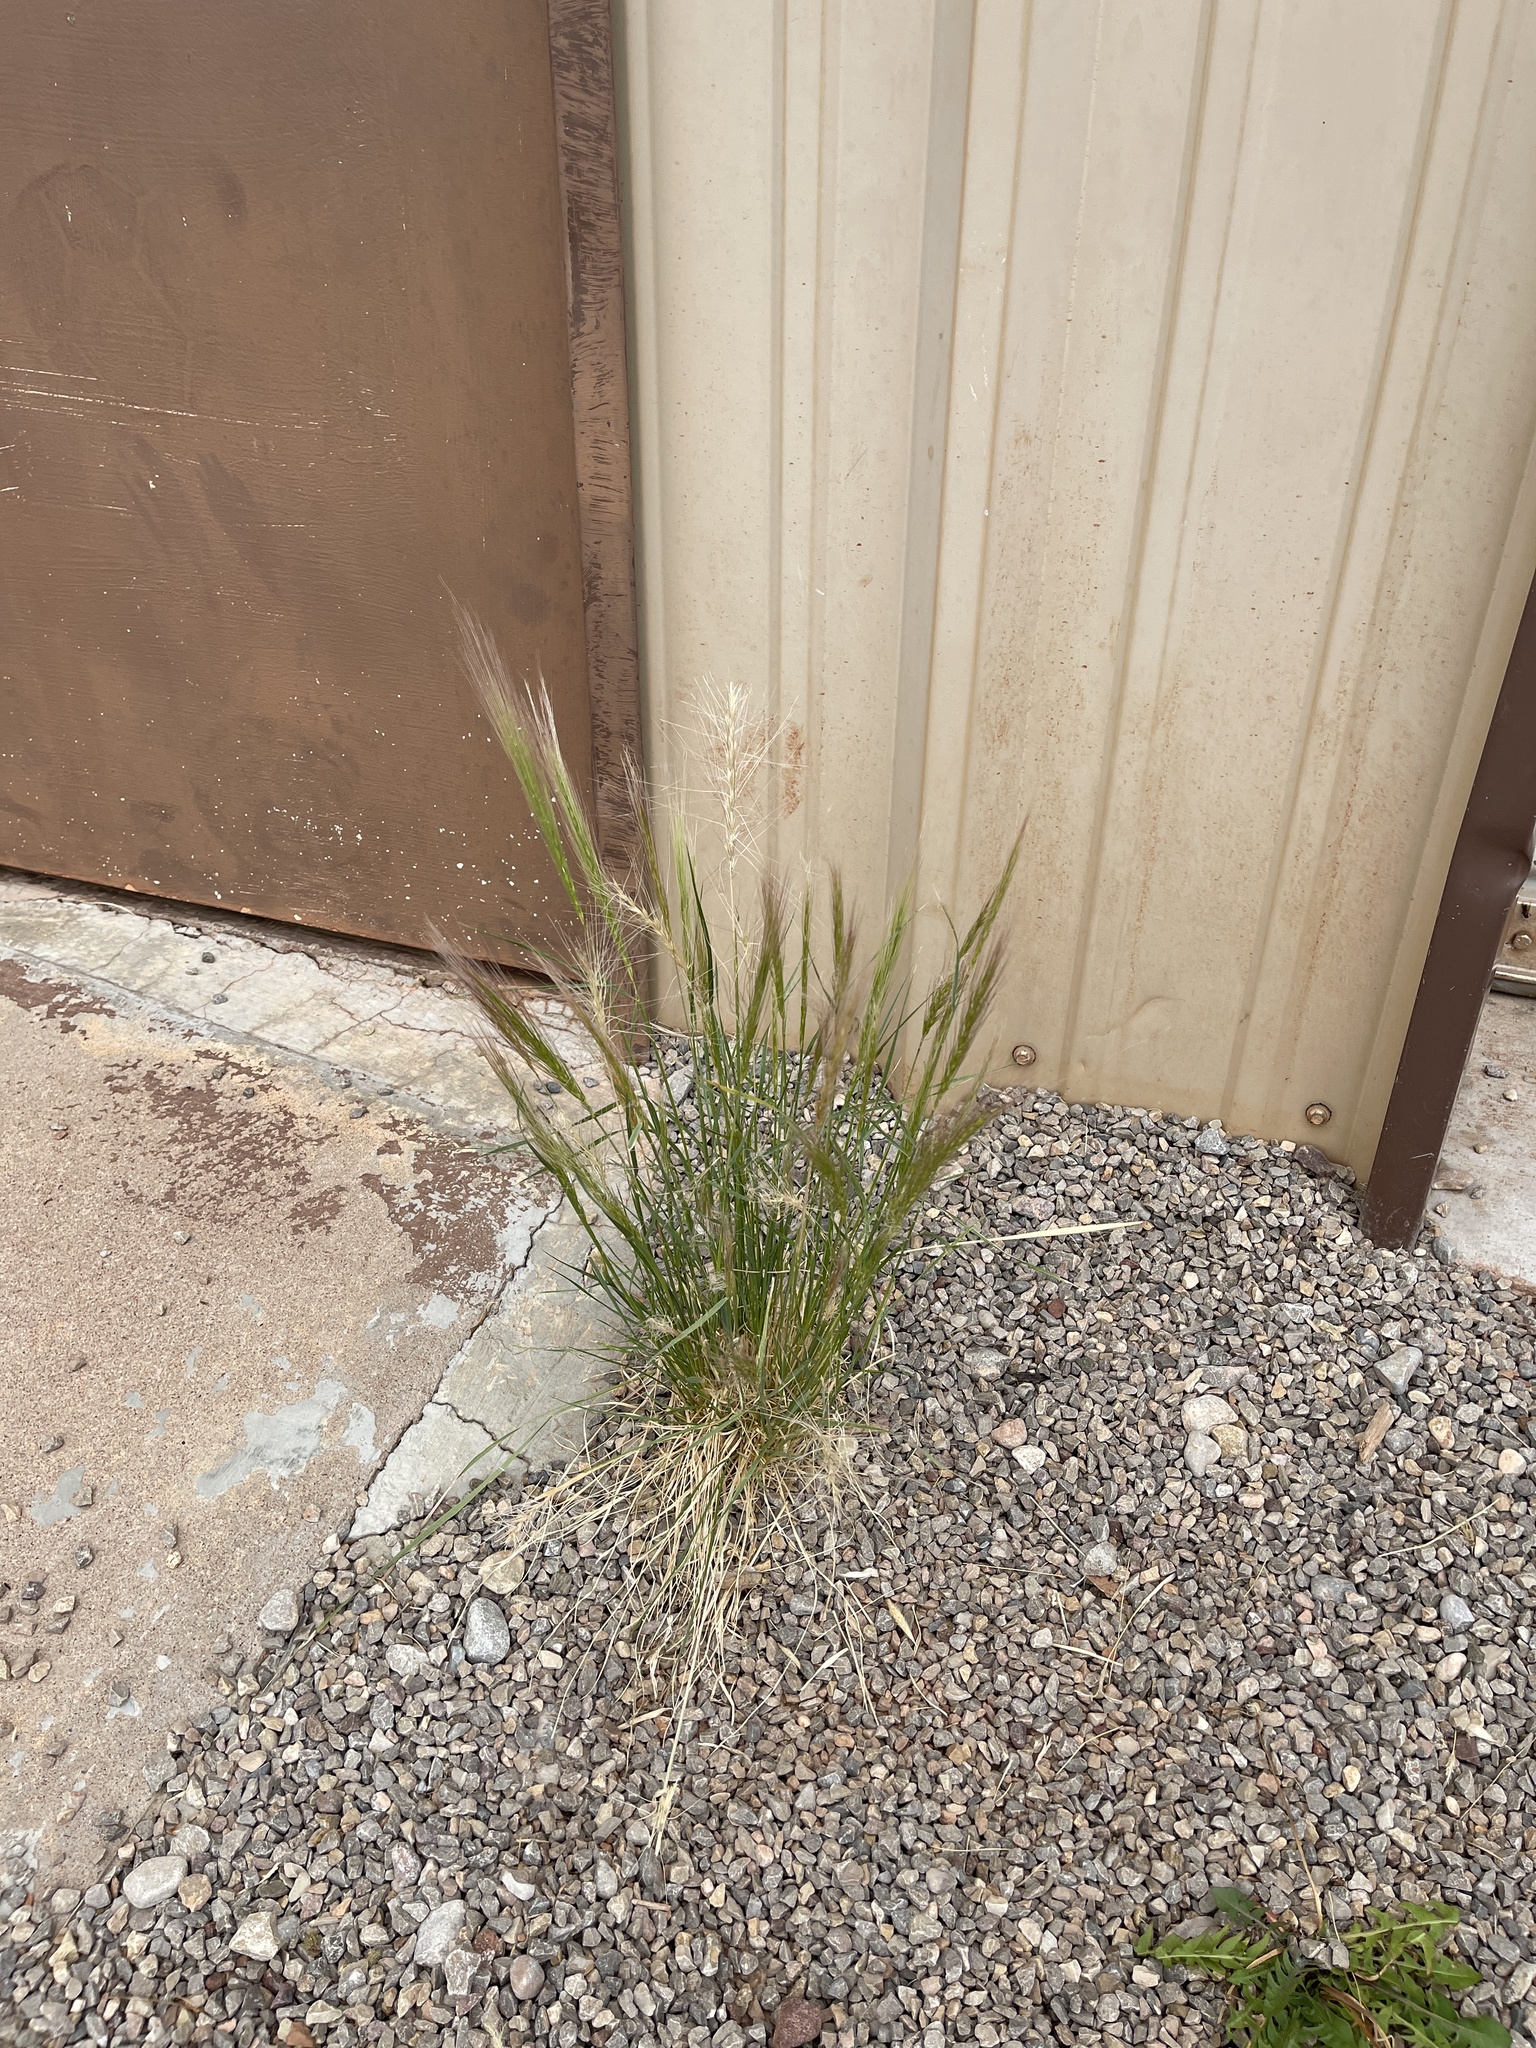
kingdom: Plantae
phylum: Tracheophyta
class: Liliopsida
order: Poales
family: Poaceae
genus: Elymus
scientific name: Elymus elymoides
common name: Bottlebrush squirreltail
